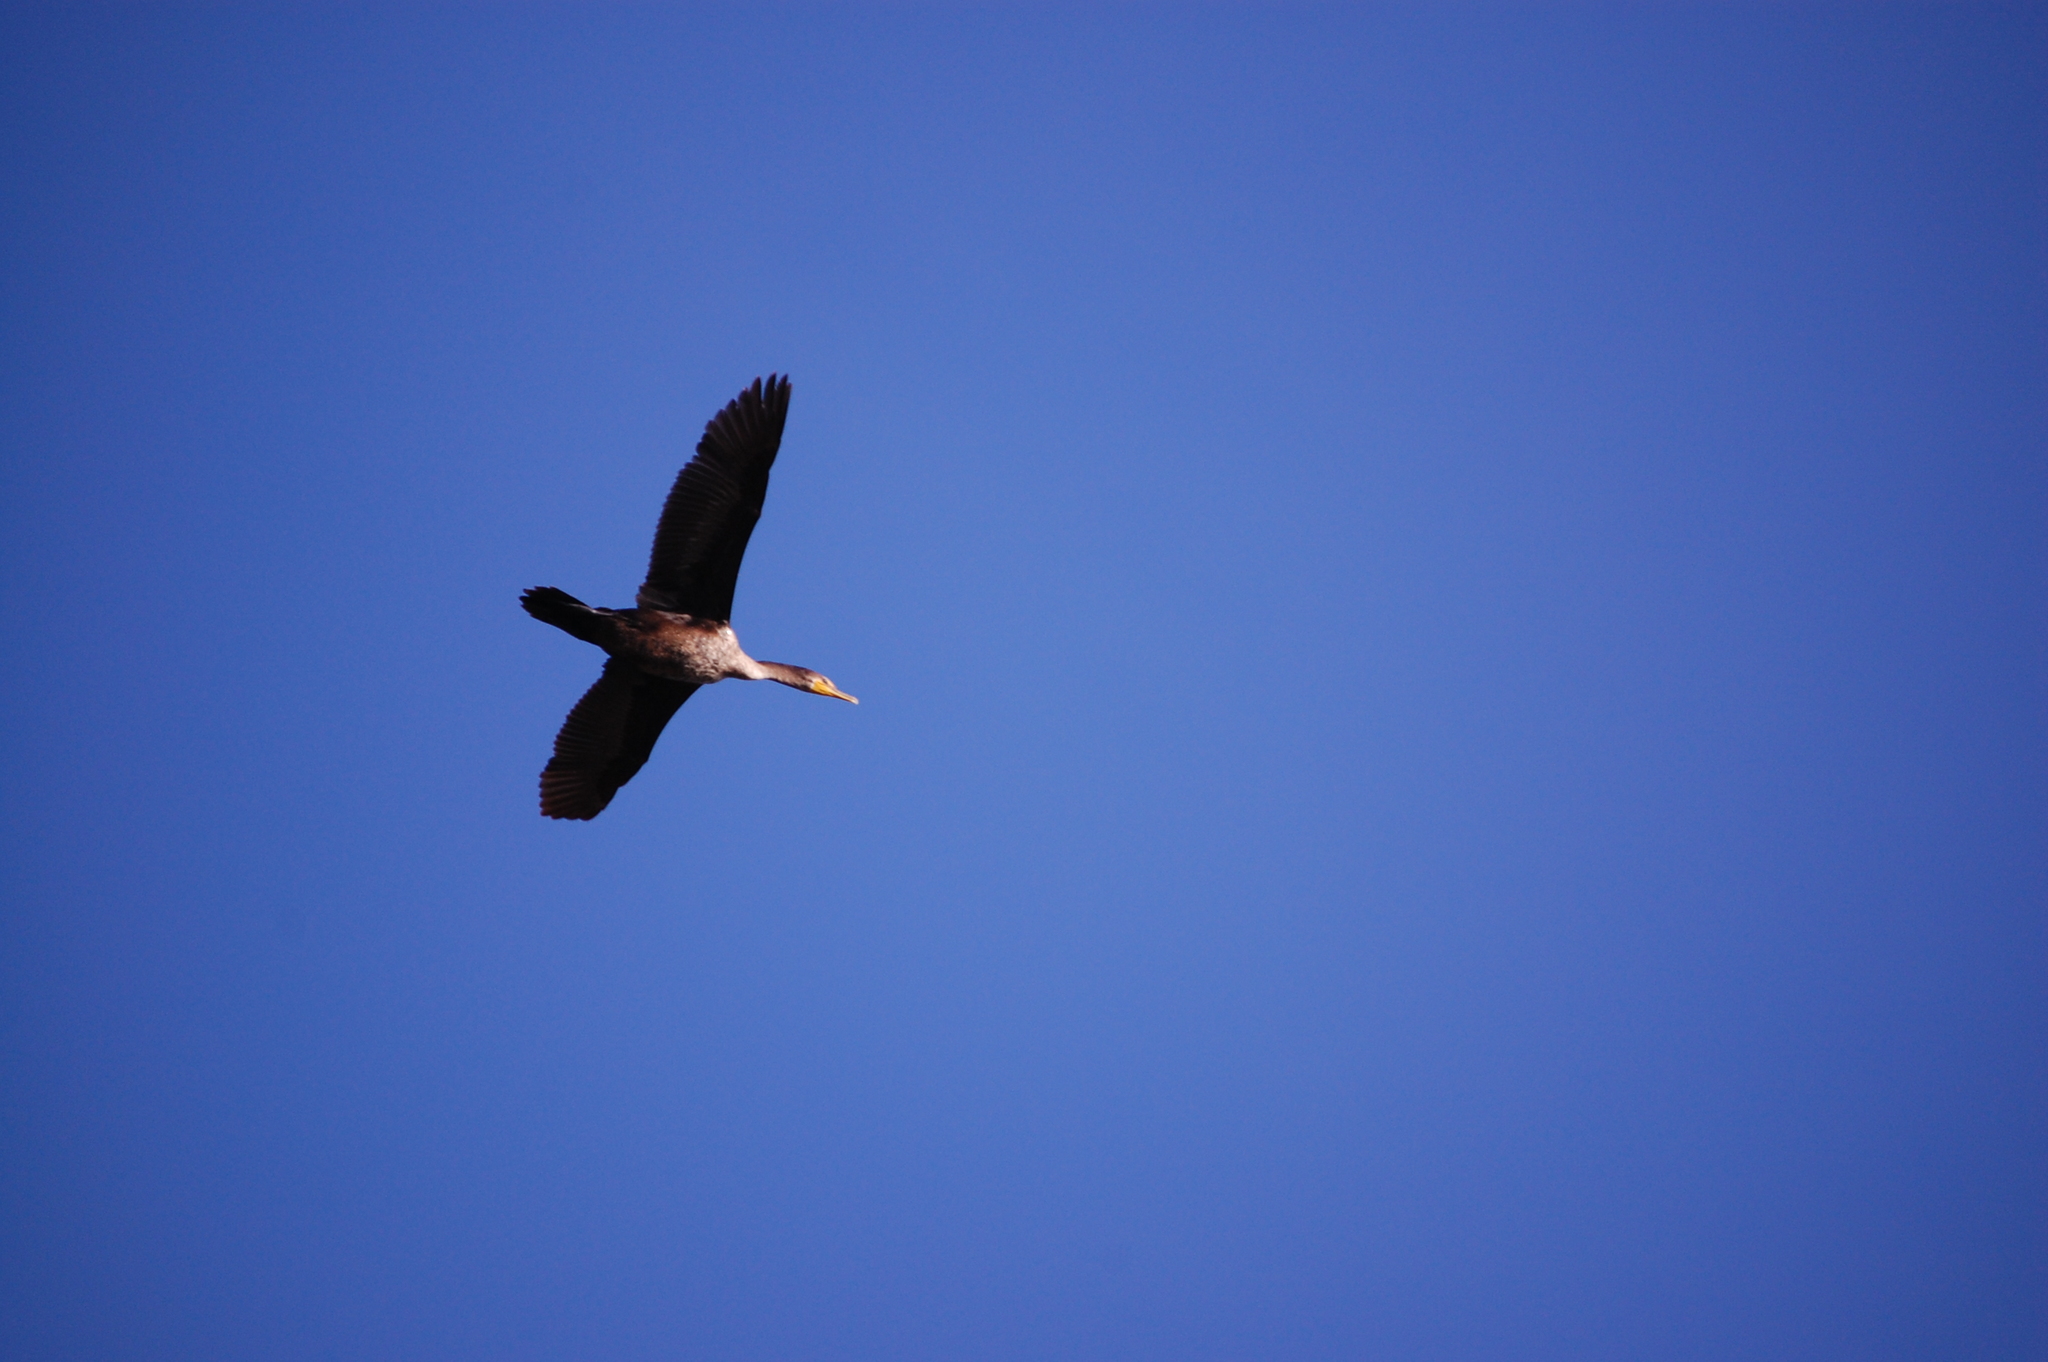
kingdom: Animalia
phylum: Chordata
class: Aves
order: Suliformes
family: Phalacrocoracidae
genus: Phalacrocorax
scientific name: Phalacrocorax auritus
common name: Double-crested cormorant
